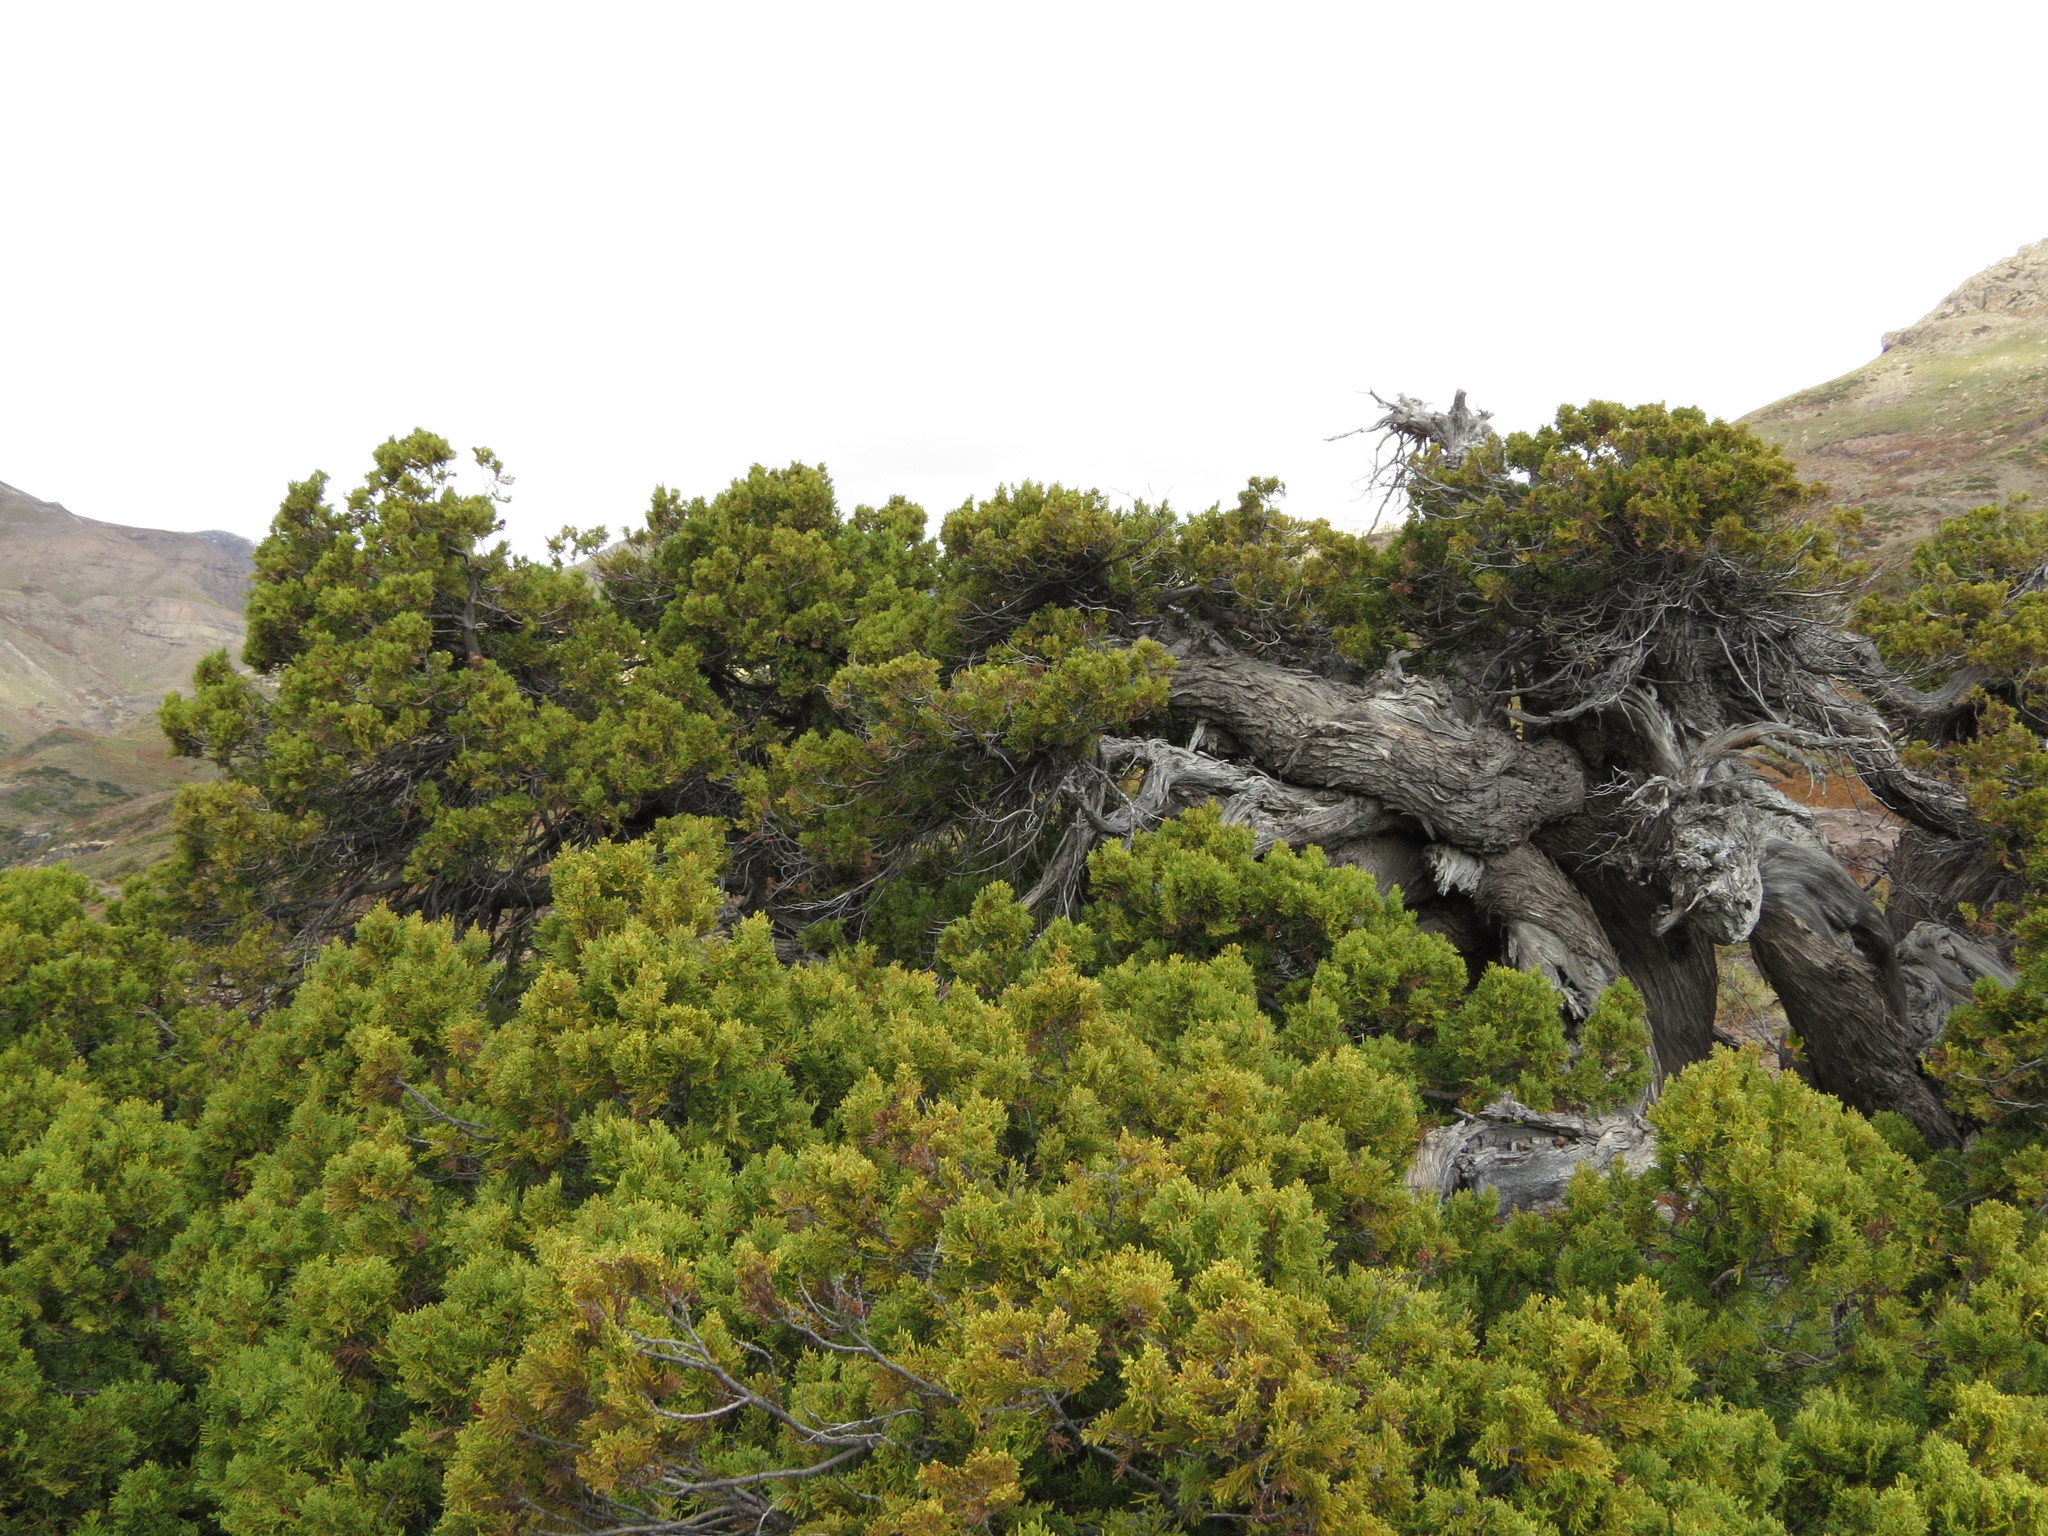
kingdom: Plantae
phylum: Tracheophyta
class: Pinopsida
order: Pinales
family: Cupressaceae
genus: Austrocedrus
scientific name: Austrocedrus chilensis
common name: Chilean incense-cedar
